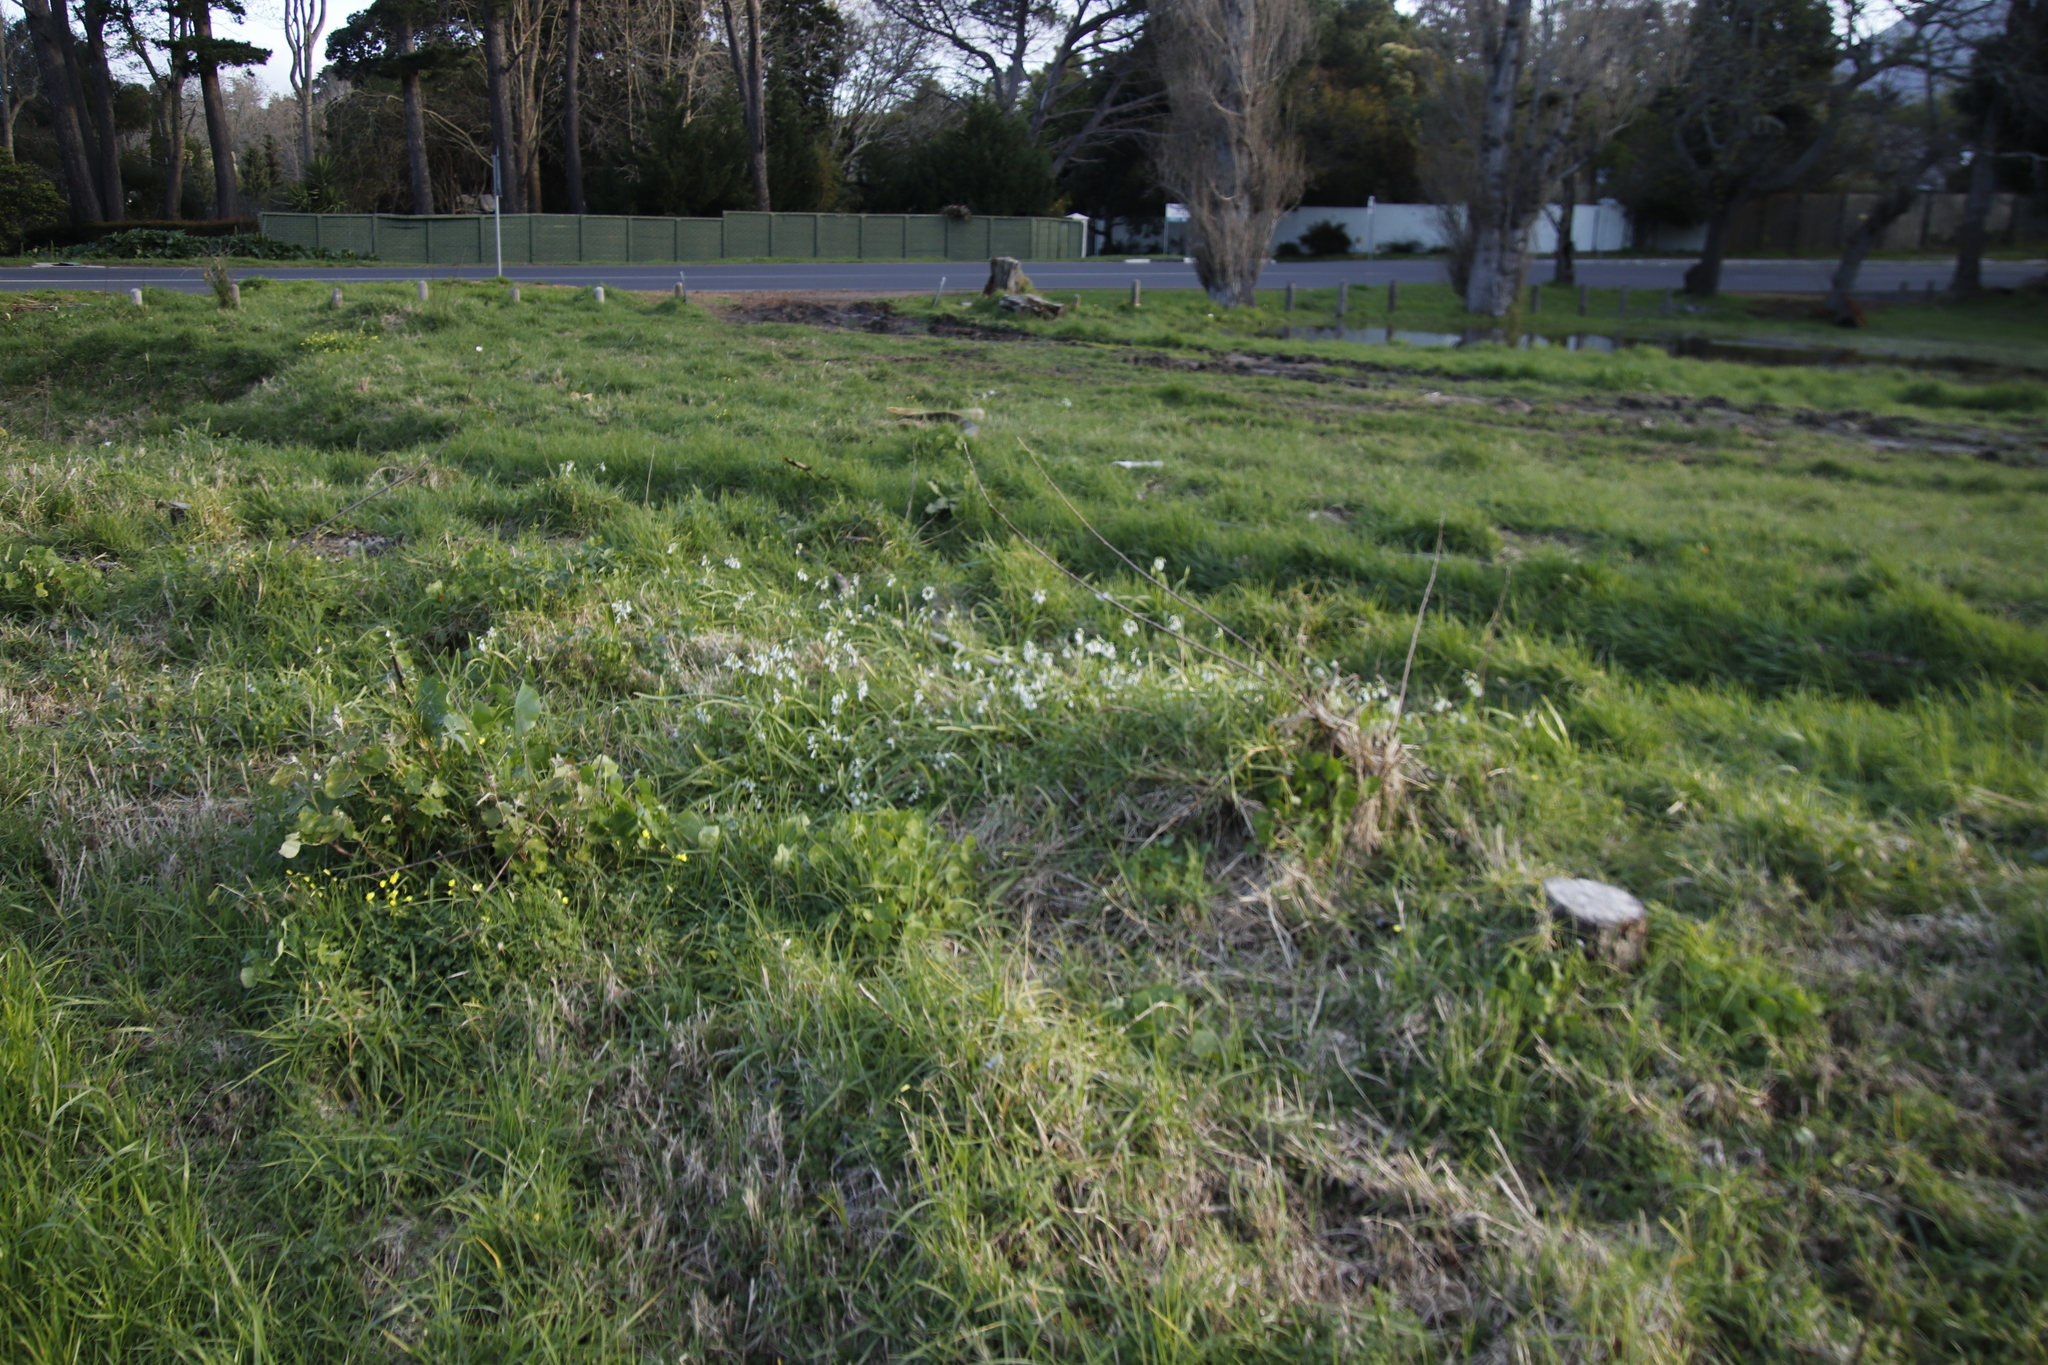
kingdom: Plantae
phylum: Tracheophyta
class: Liliopsida
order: Asparagales
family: Amaryllidaceae
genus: Allium
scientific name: Allium triquetrum
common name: Three-cornered garlic
